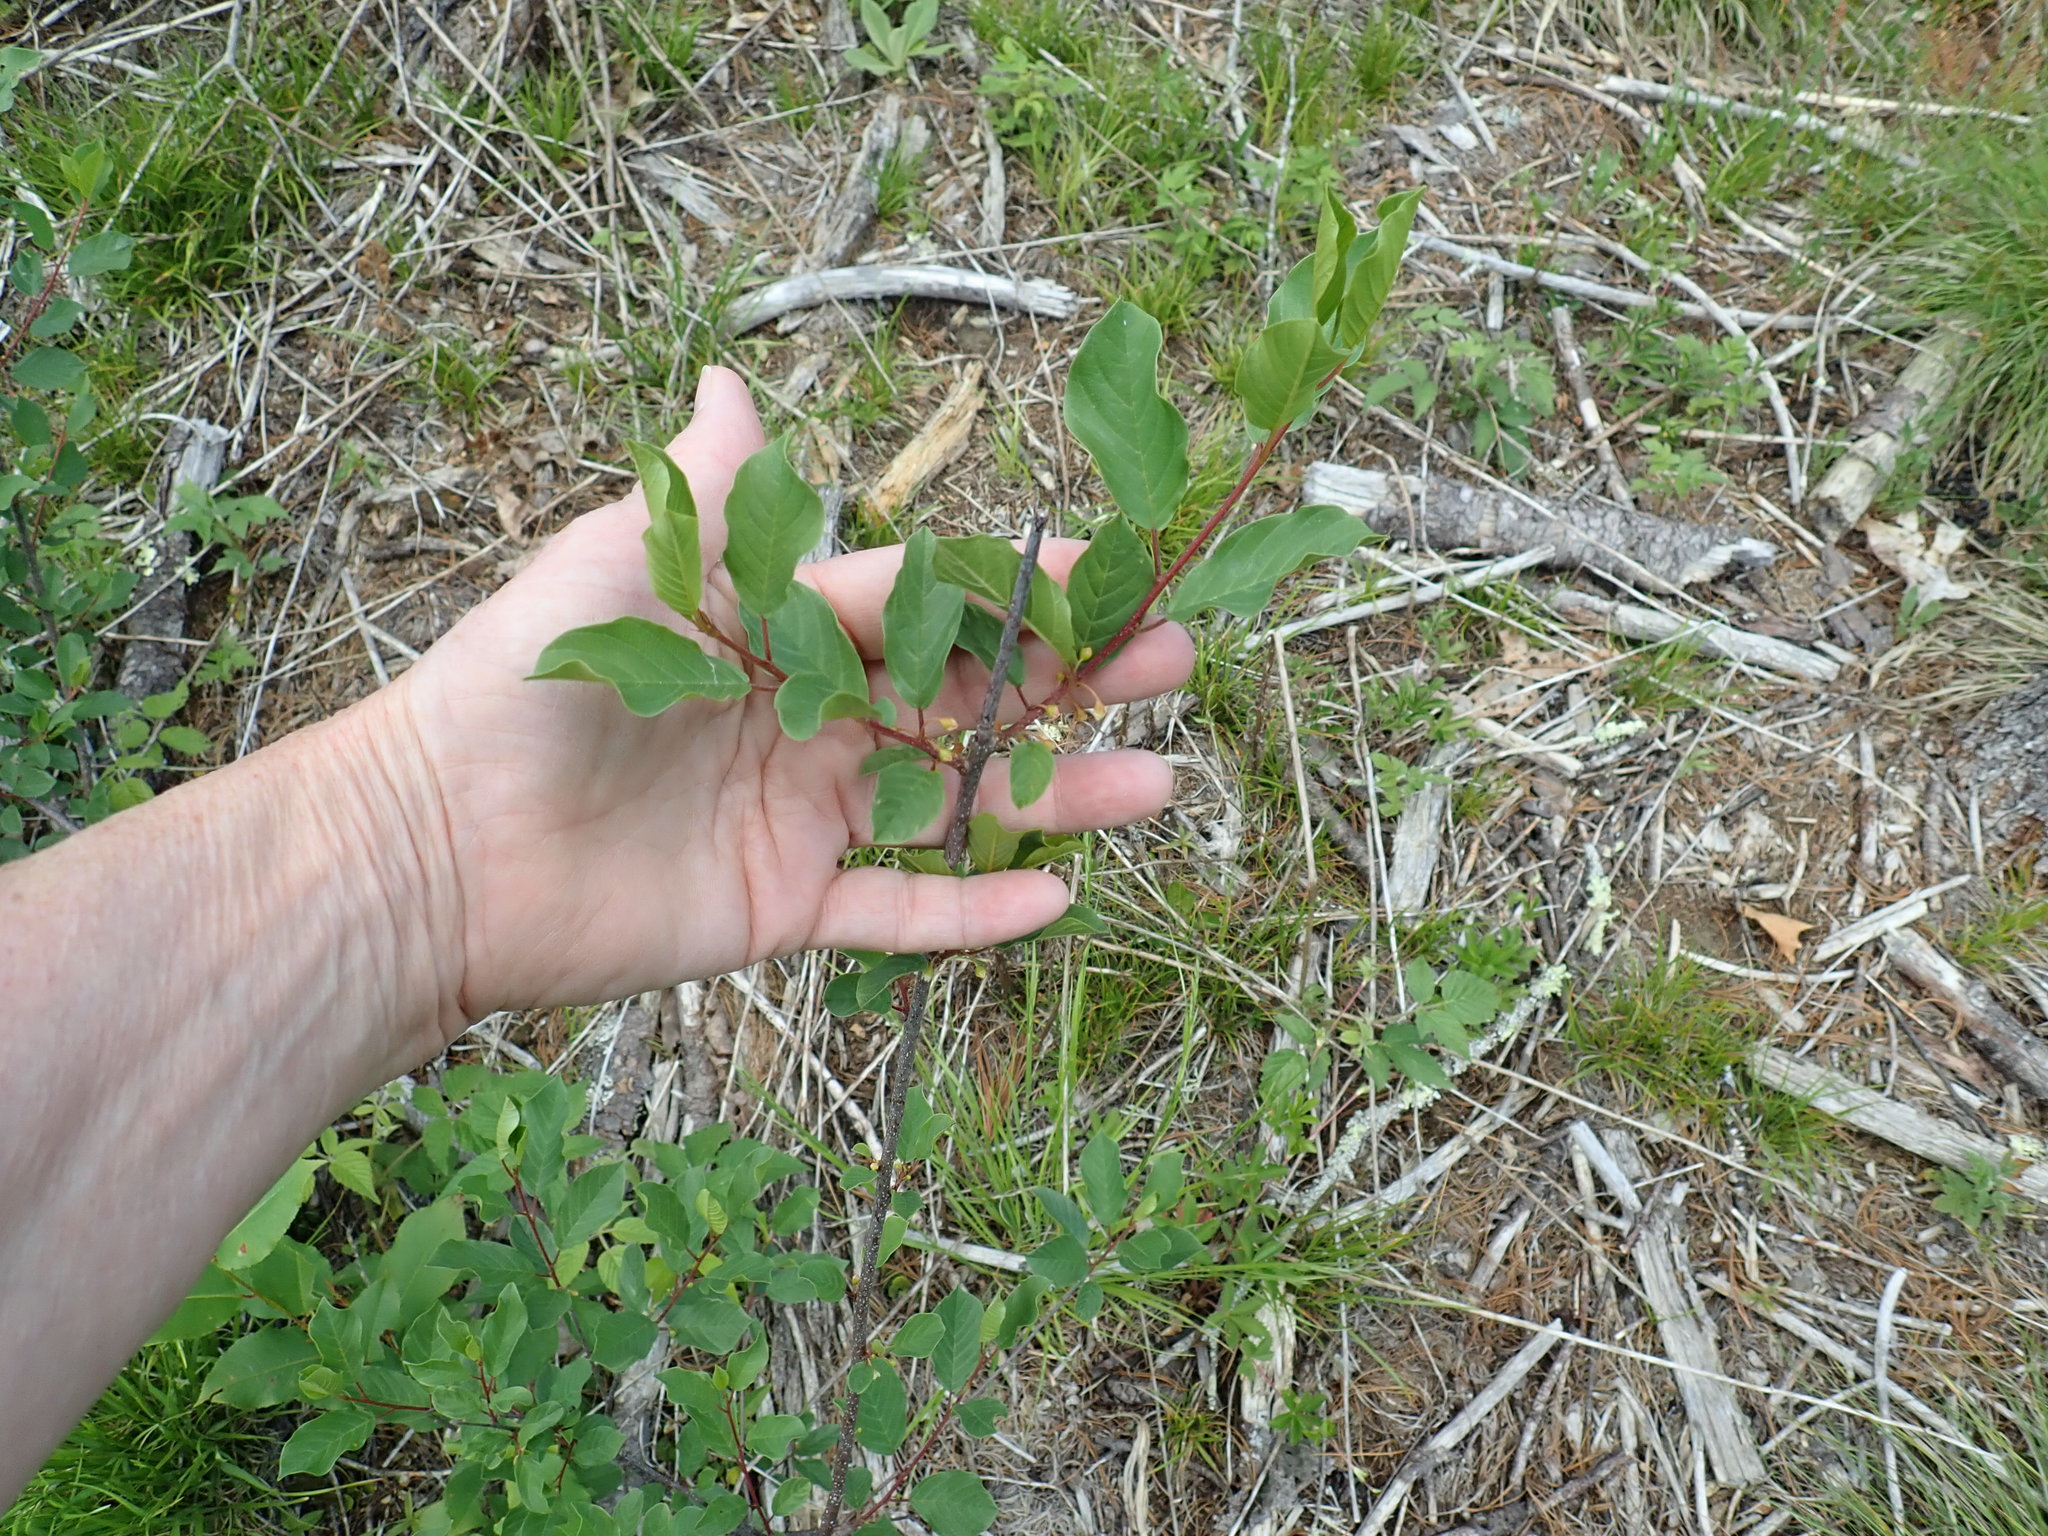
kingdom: Plantae
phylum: Tracheophyta
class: Magnoliopsida
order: Rosales
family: Rhamnaceae
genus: Frangula
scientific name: Frangula alnus
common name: Alder buckthorn
